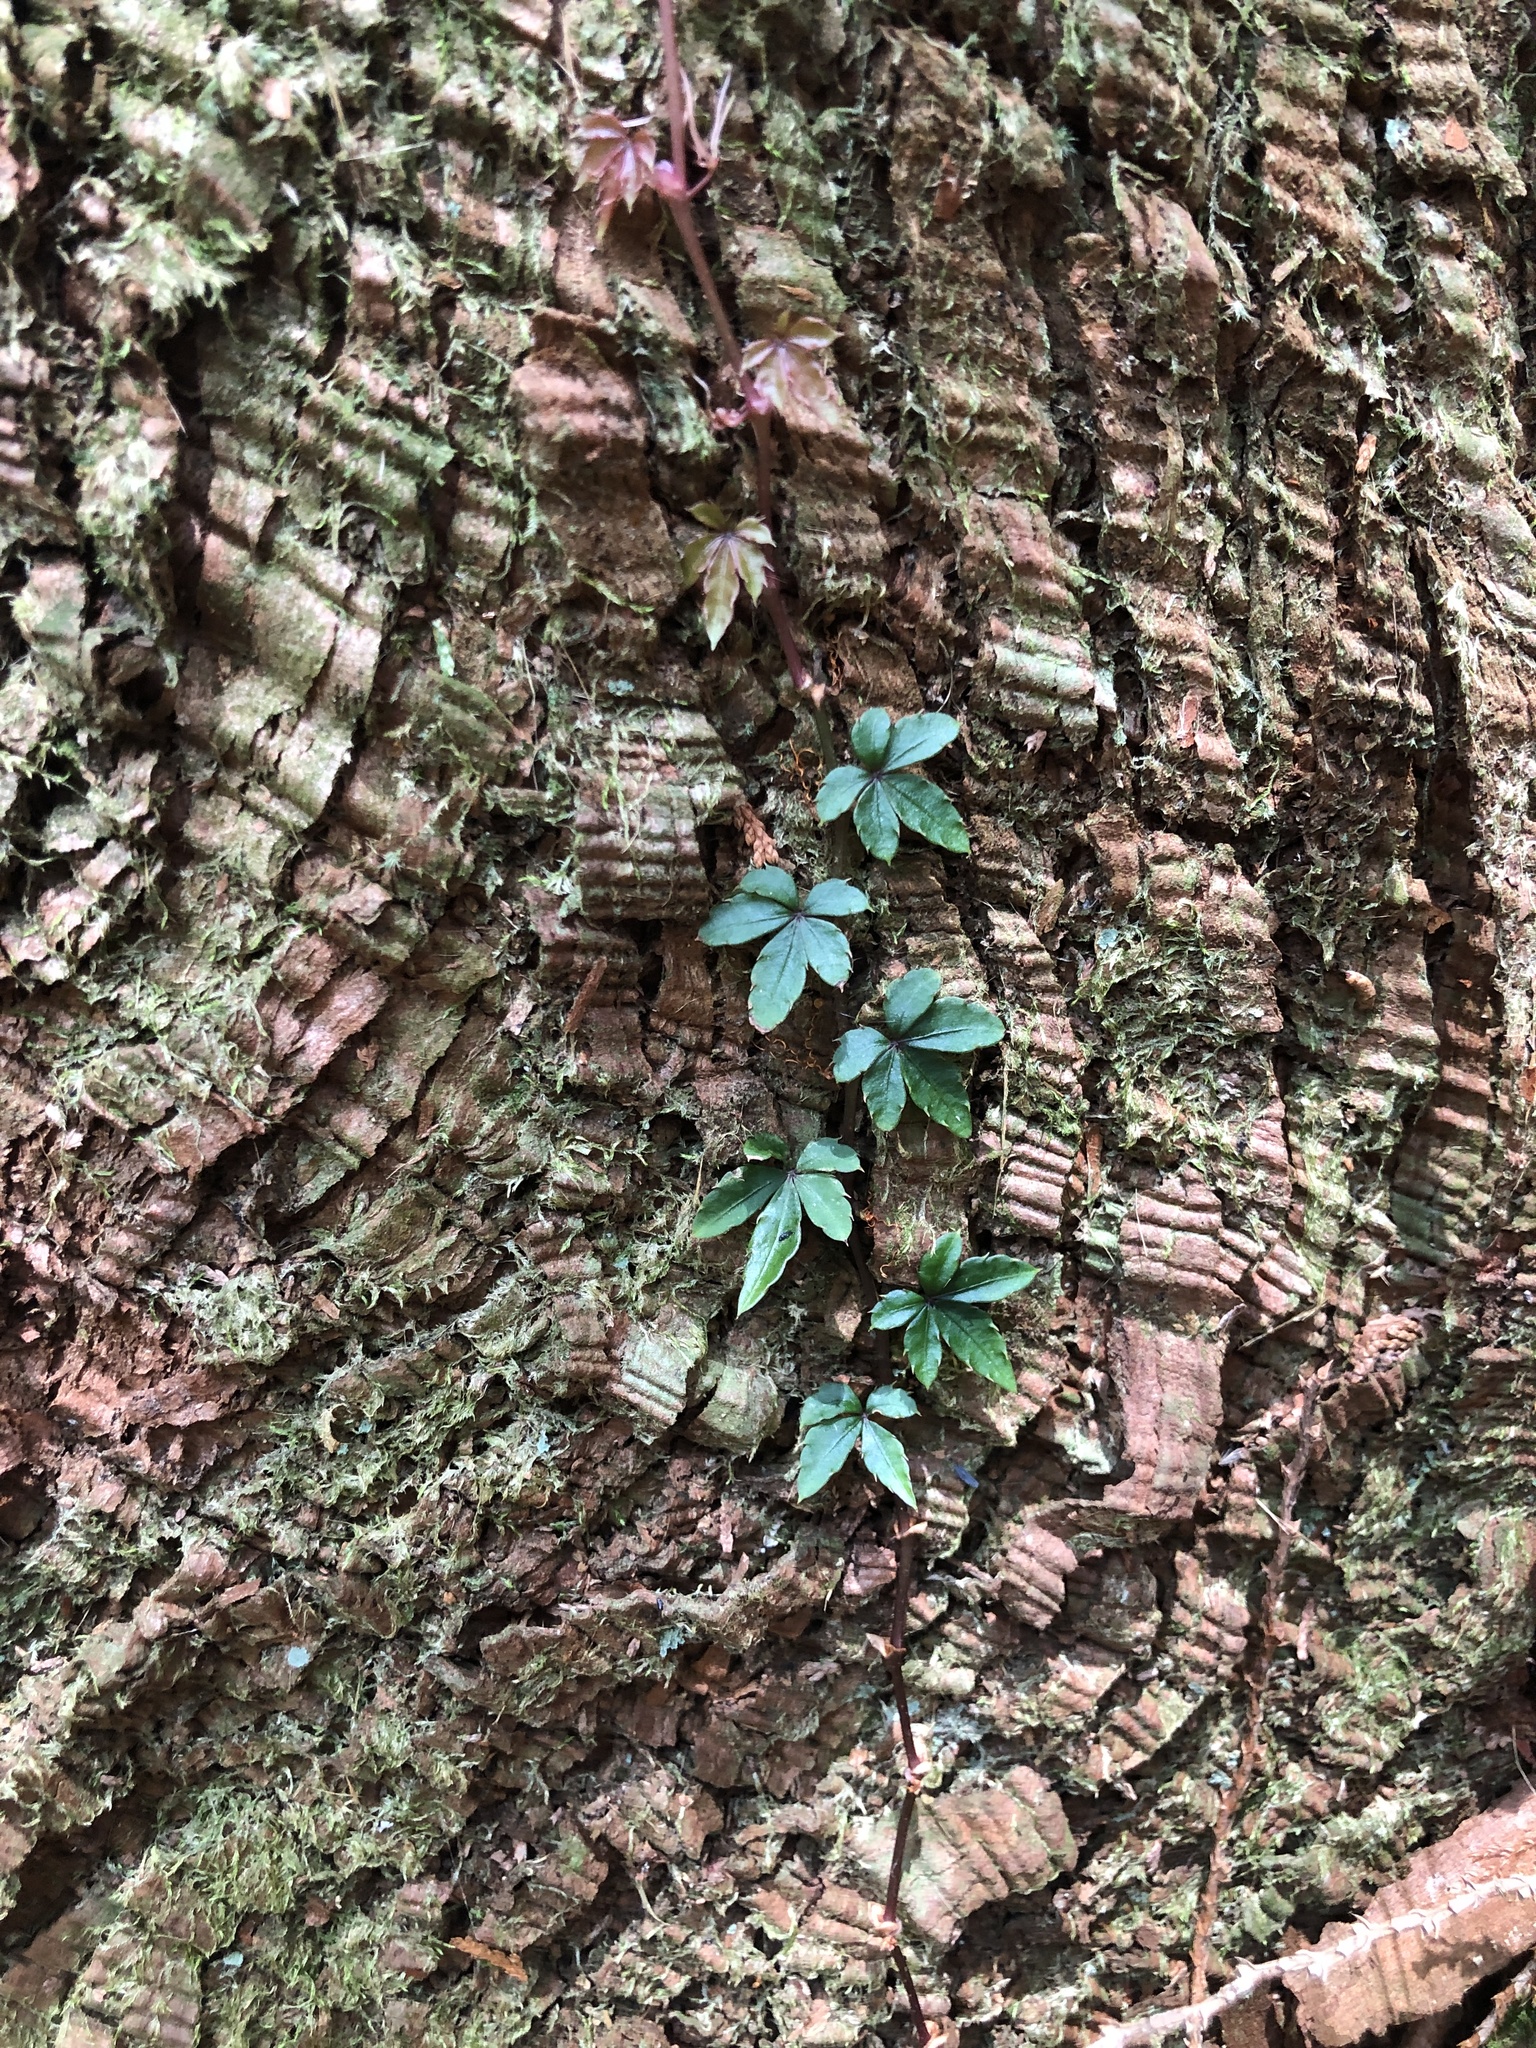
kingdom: Plantae
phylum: Tracheophyta
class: Magnoliopsida
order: Vitales
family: Vitaceae
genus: Tetrastigma
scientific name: Tetrastigma obtectum
